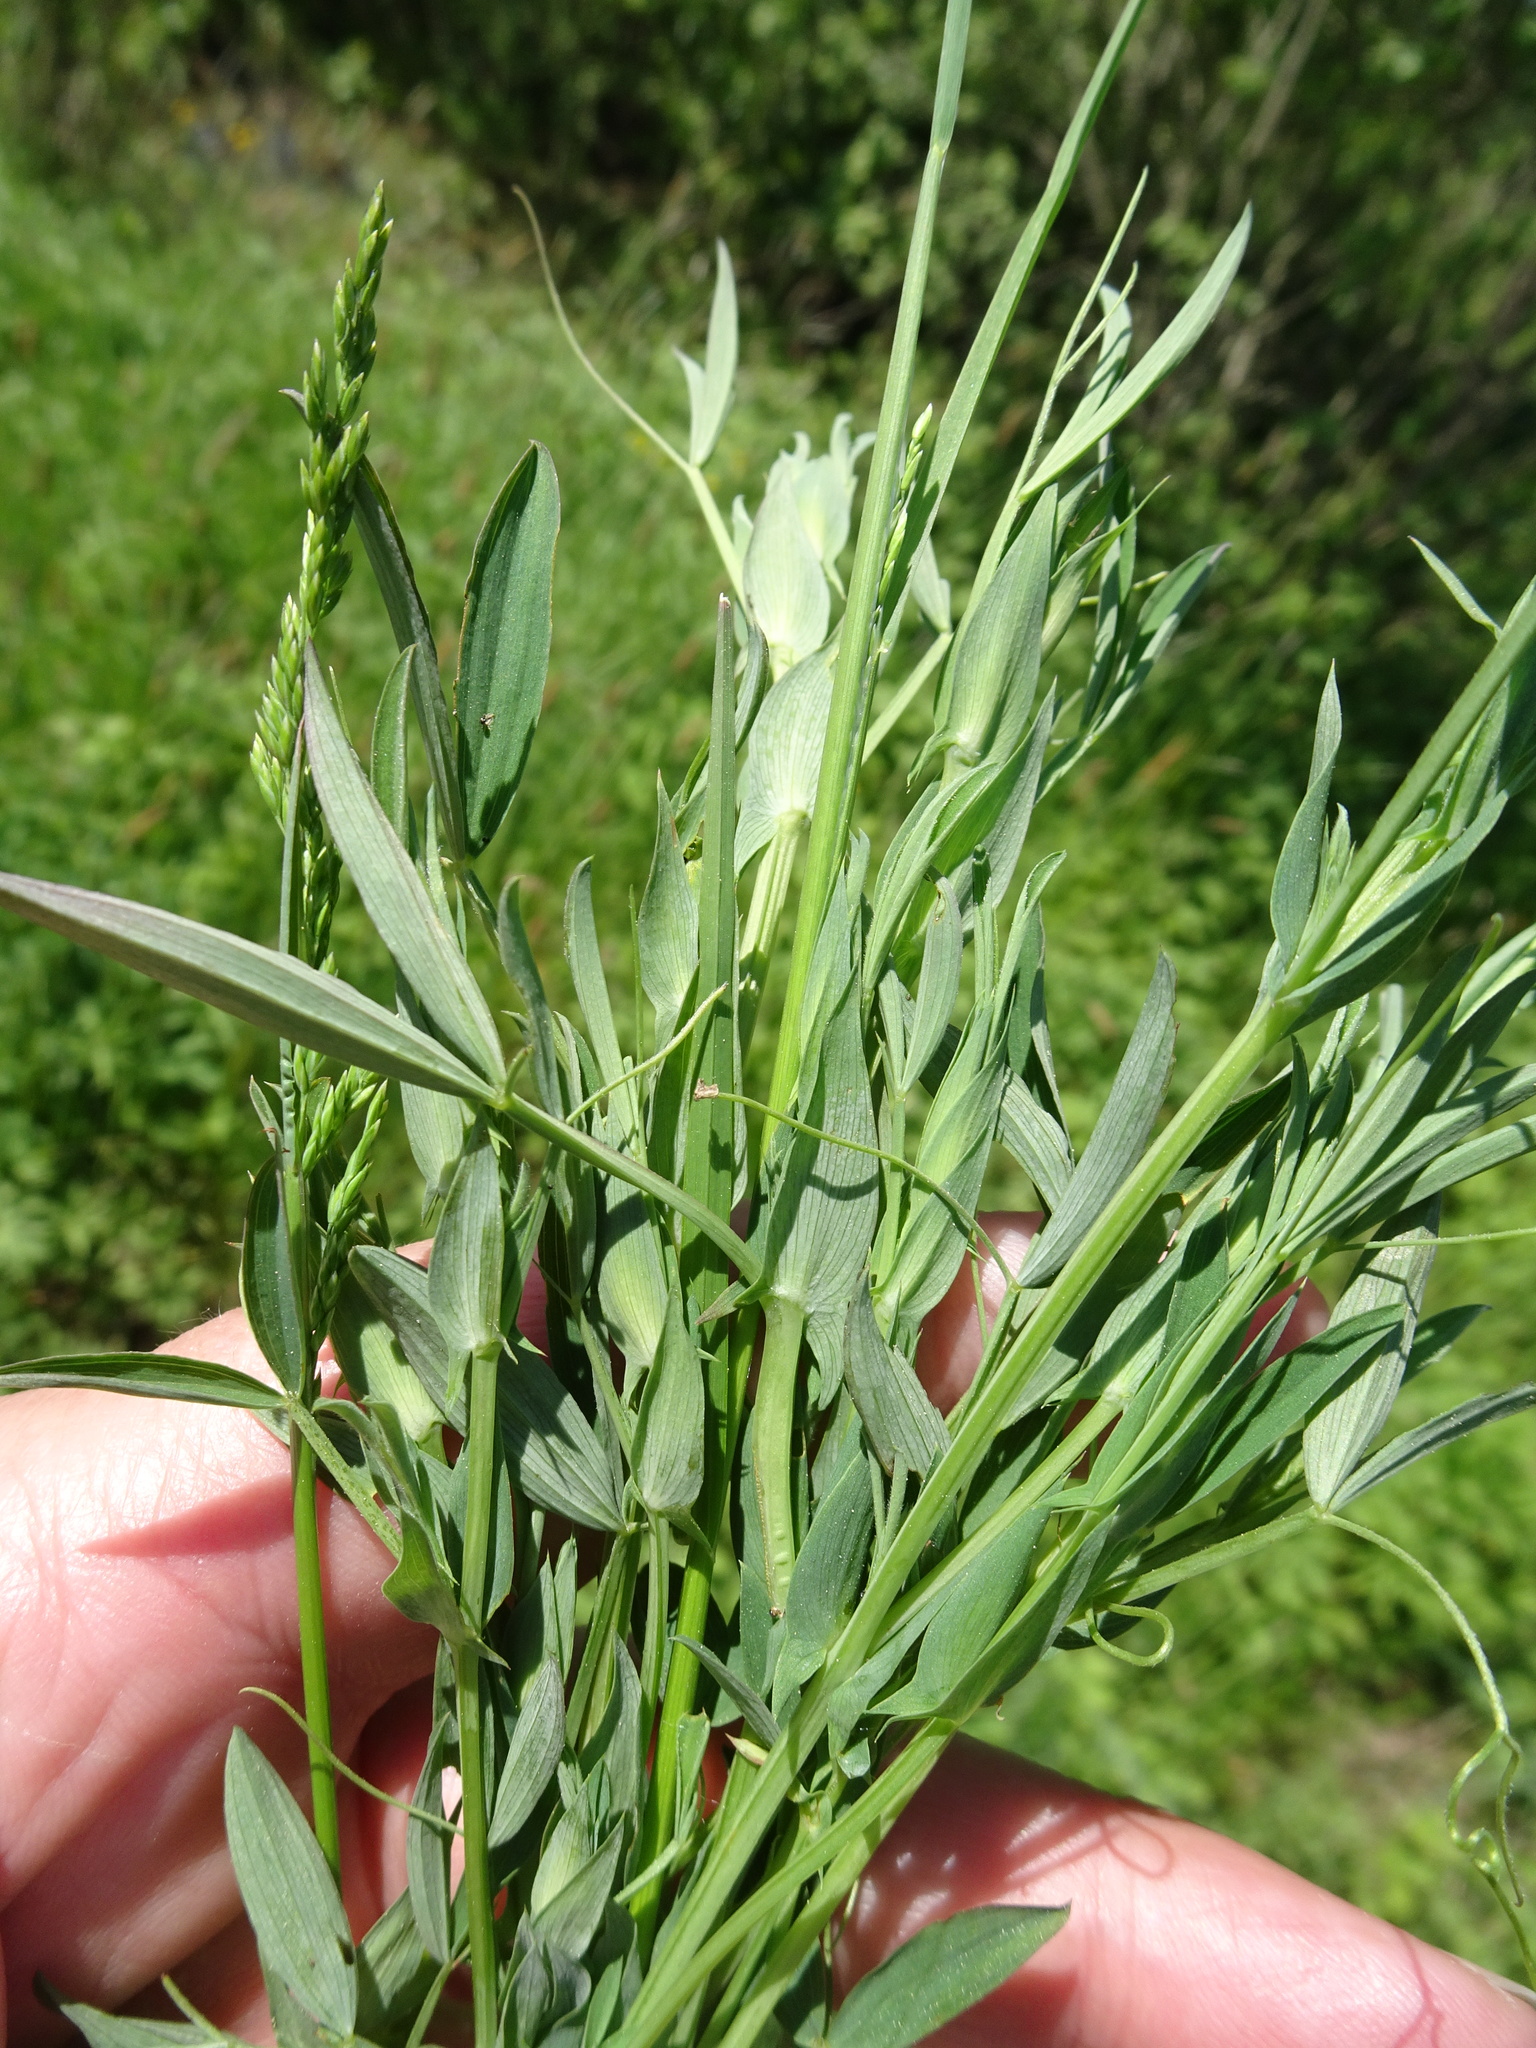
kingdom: Plantae
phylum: Tracheophyta
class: Magnoliopsida
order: Fabales
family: Fabaceae
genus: Lathyrus
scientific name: Lathyrus pratensis
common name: Meadow vetchling
